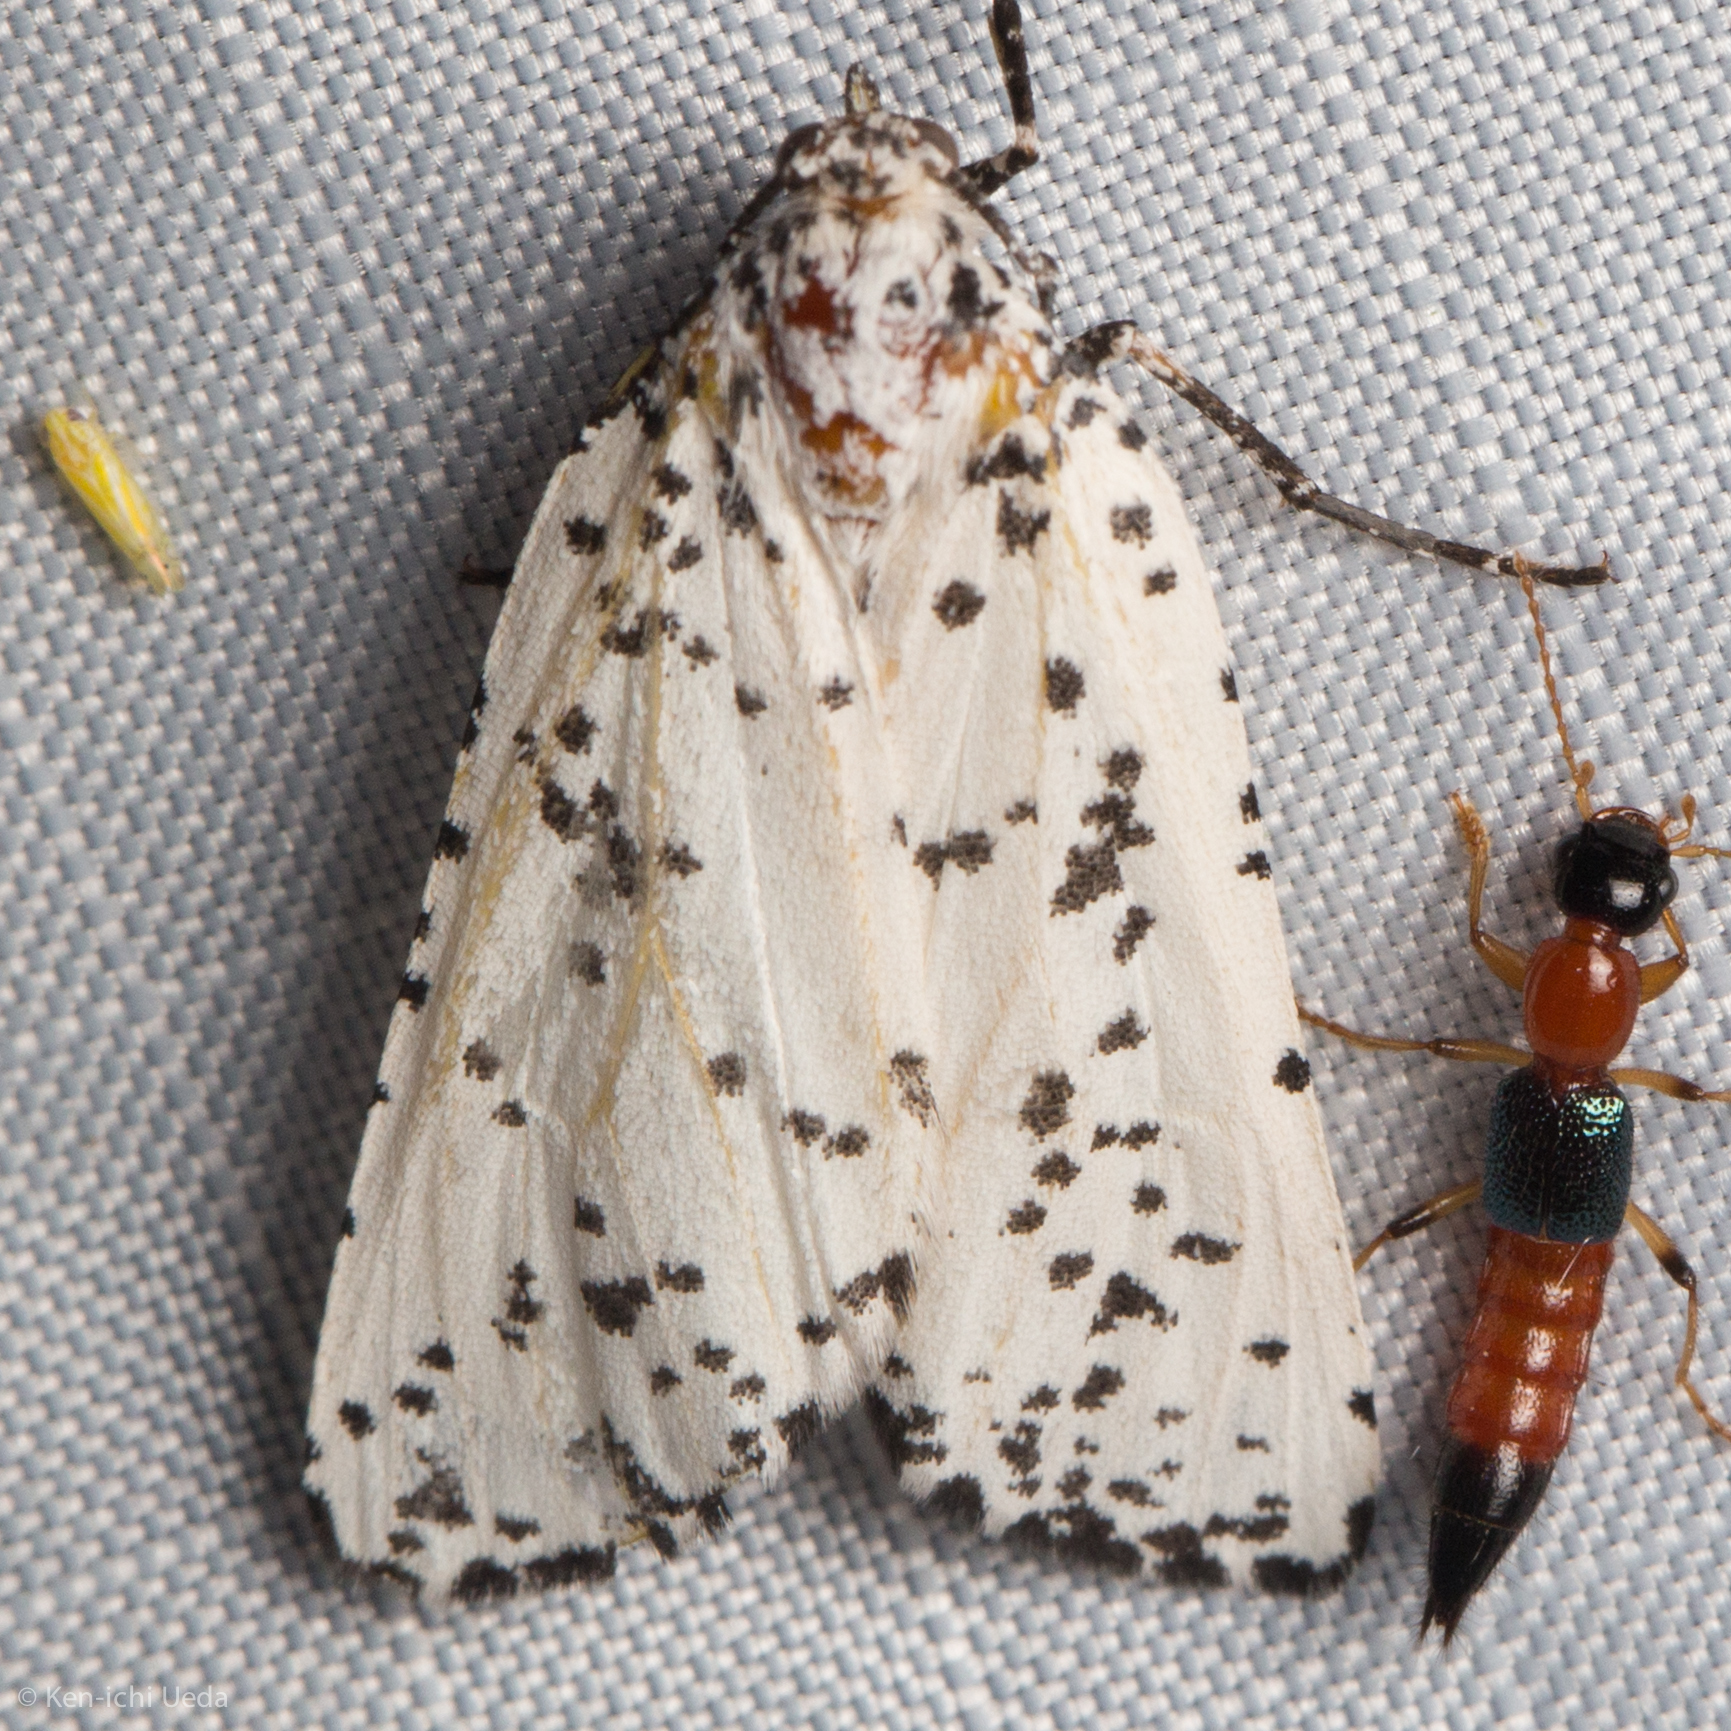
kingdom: Animalia
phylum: Arthropoda
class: Insecta
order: Lepidoptera
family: Geometridae
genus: Eucaterva
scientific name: Eucaterva variaria
